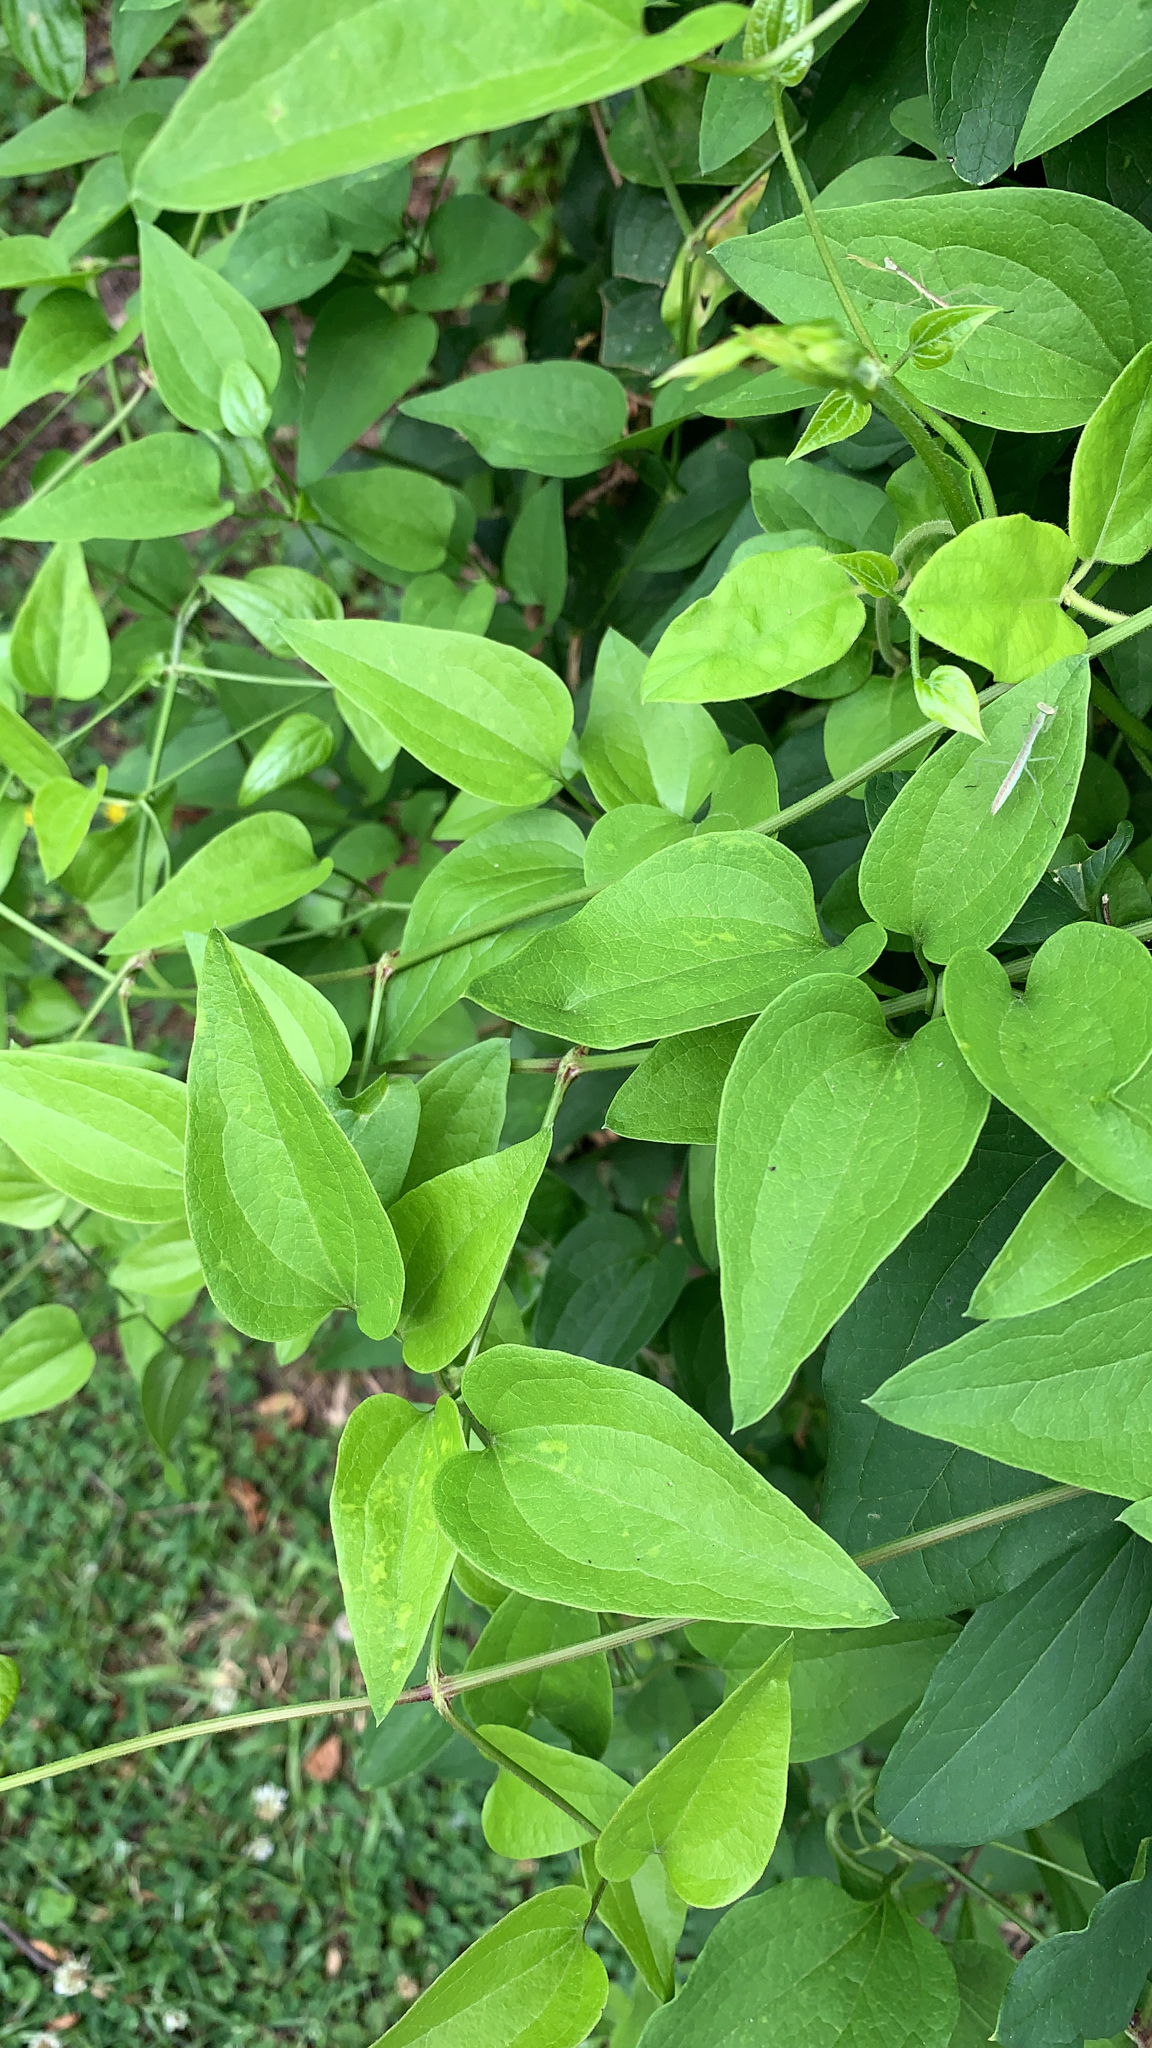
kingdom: Plantae
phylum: Tracheophyta
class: Magnoliopsida
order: Ranunculales
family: Ranunculaceae
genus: Clematis
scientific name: Clematis terniflora
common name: Sweet autumn clematis
